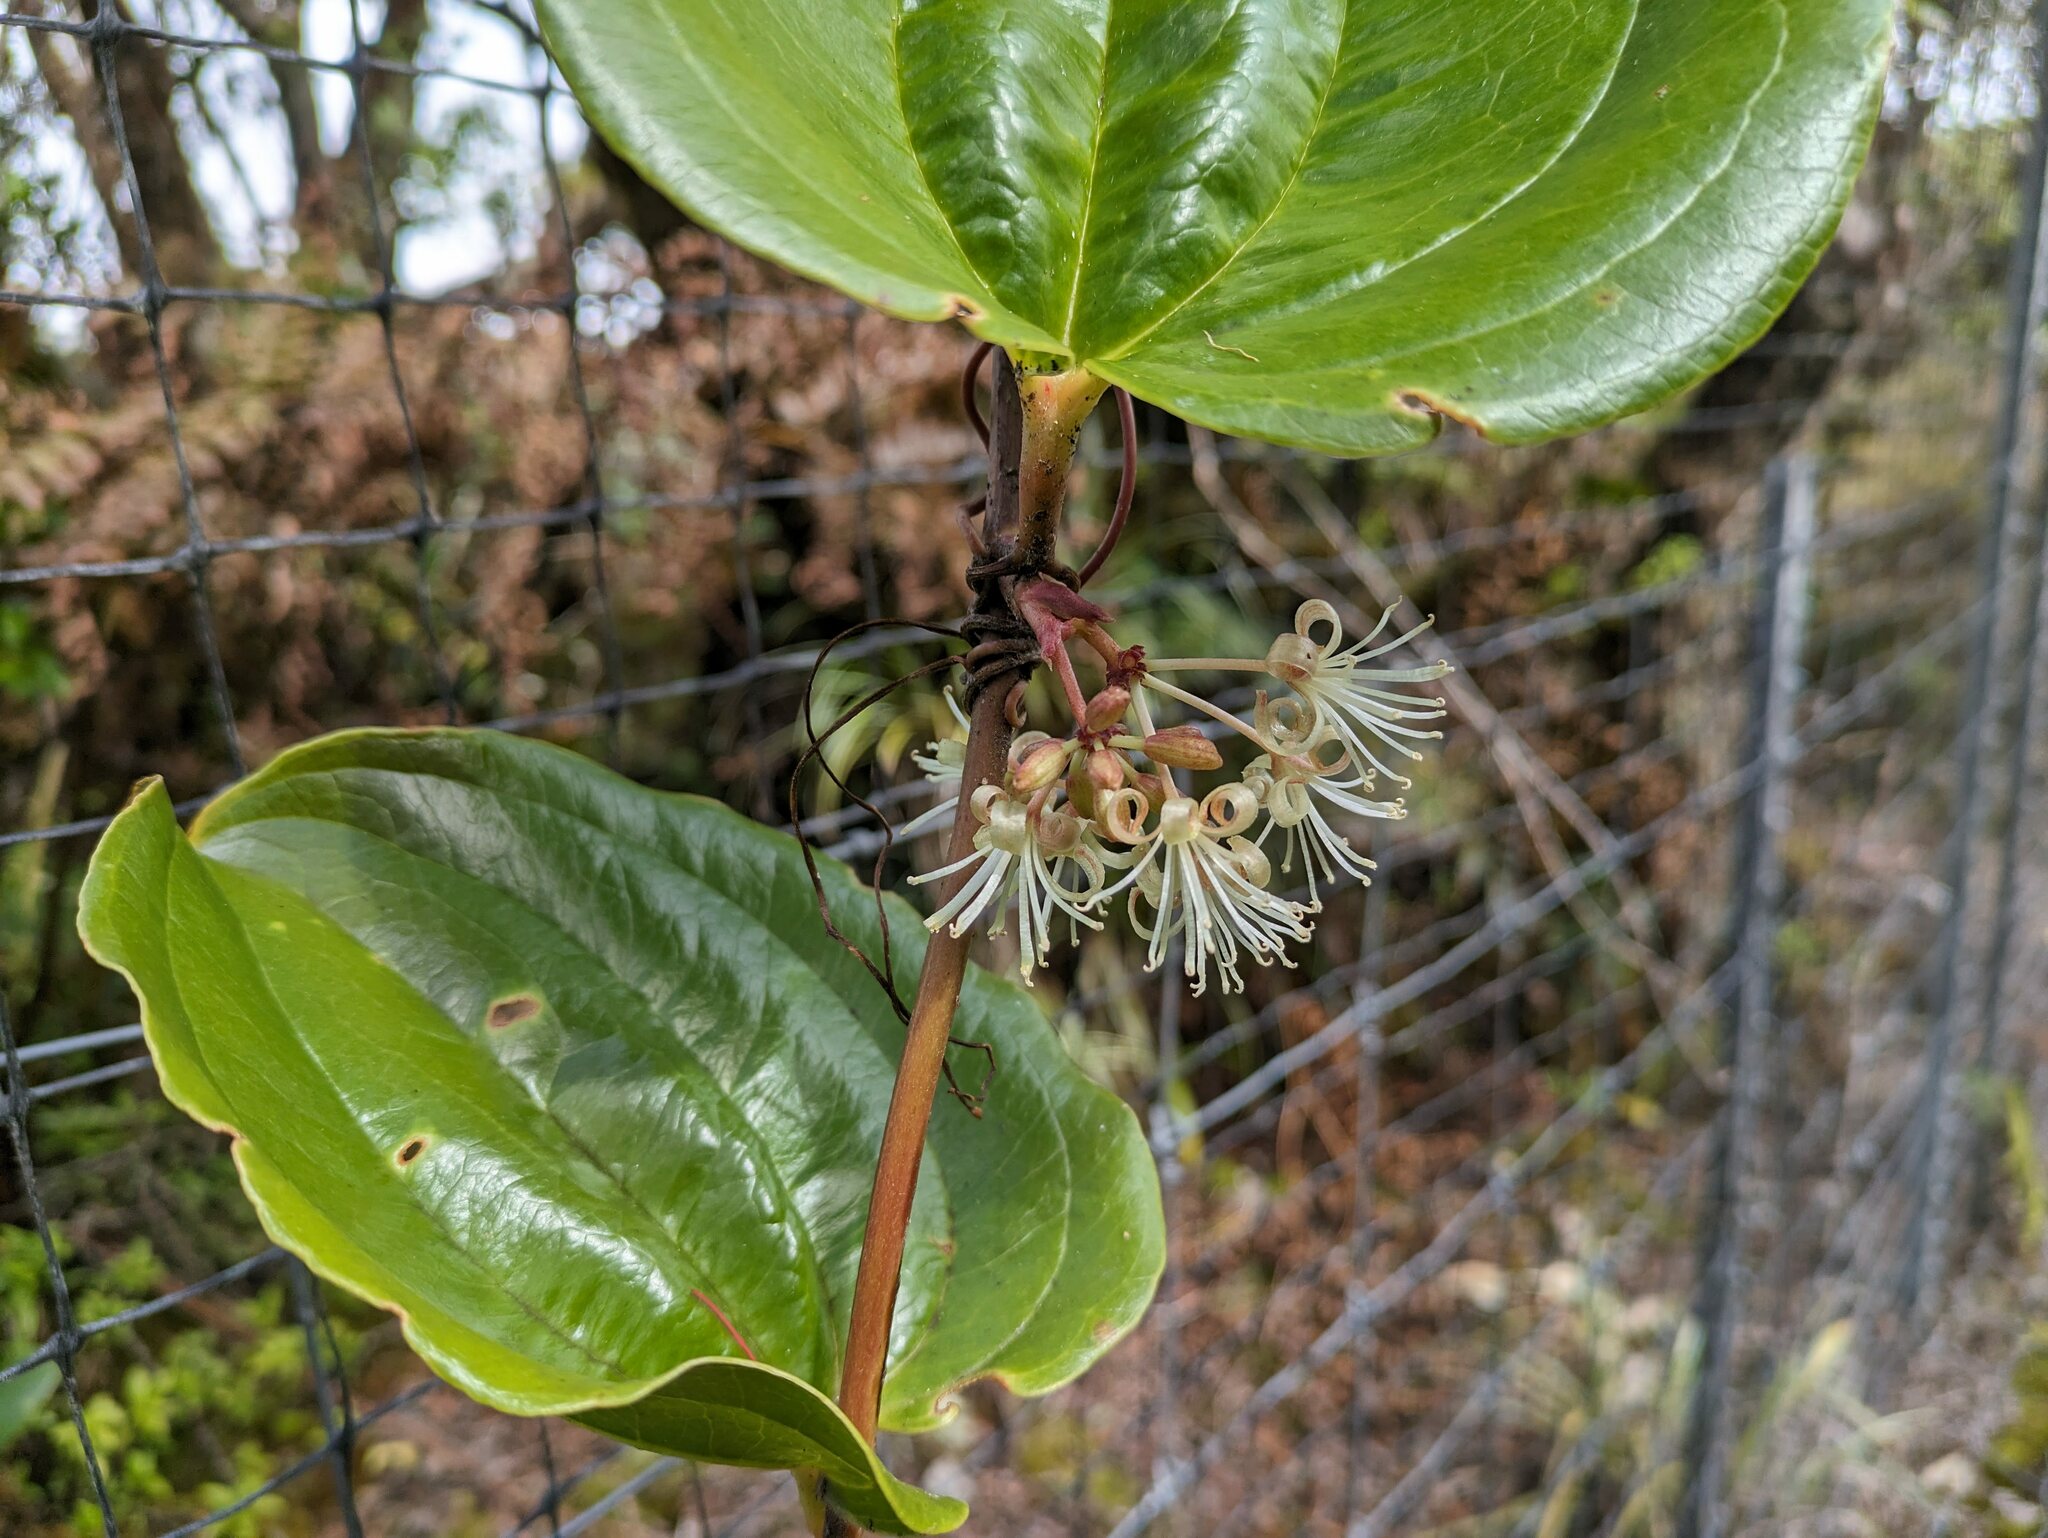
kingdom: Plantae
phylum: Tracheophyta
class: Liliopsida
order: Liliales
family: Smilacaceae
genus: Smilax
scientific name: Smilax melastomifolia
